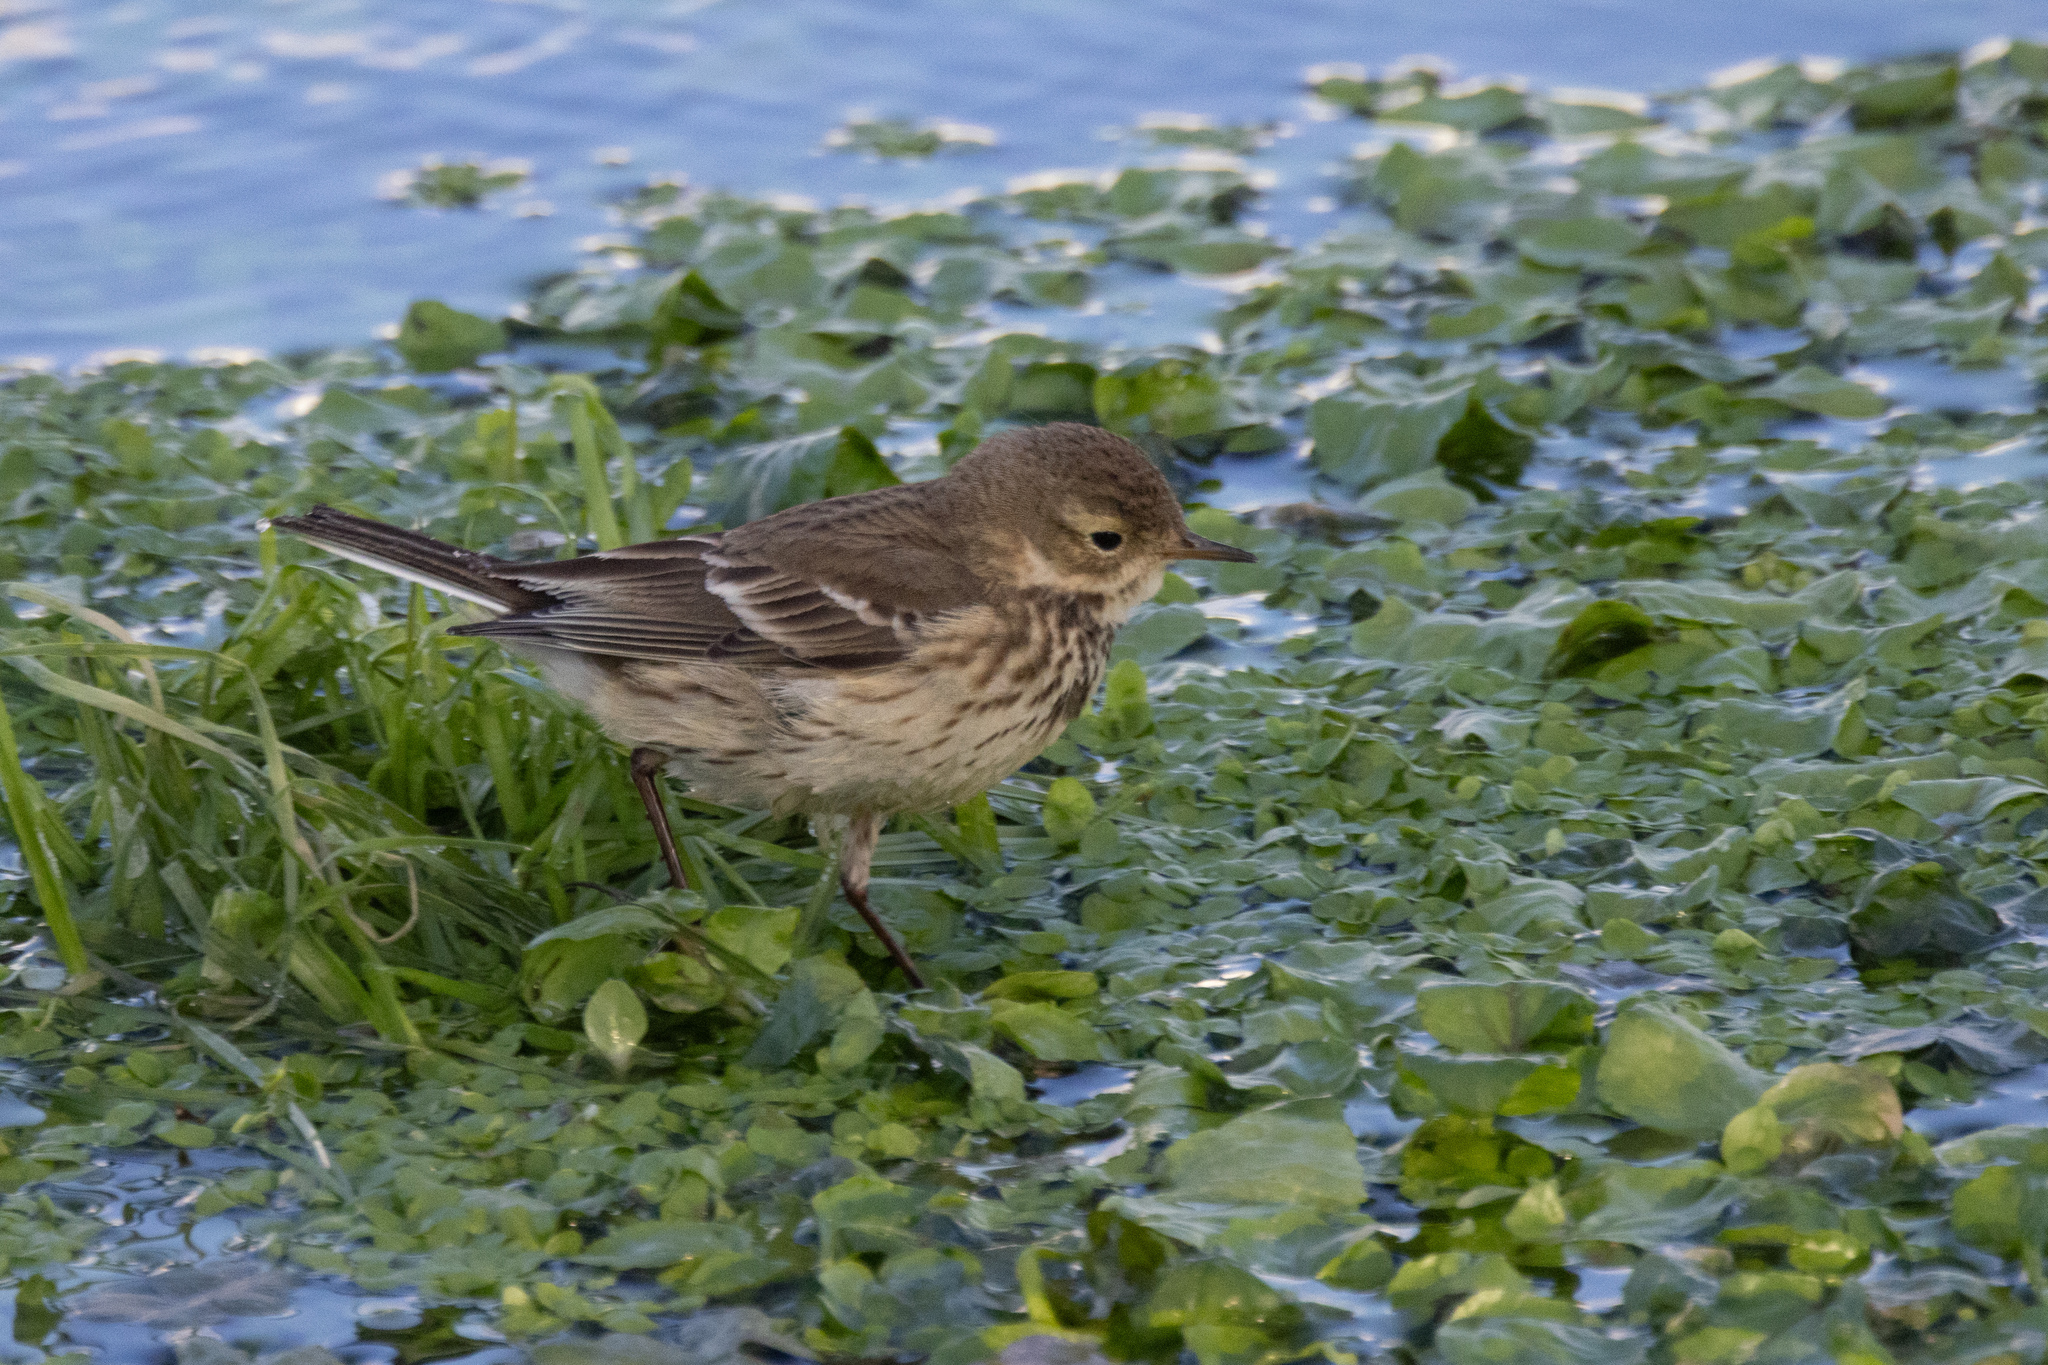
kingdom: Animalia
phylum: Chordata
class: Aves
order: Passeriformes
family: Motacillidae
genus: Anthus
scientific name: Anthus rubescens
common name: Buff-bellied pipit
